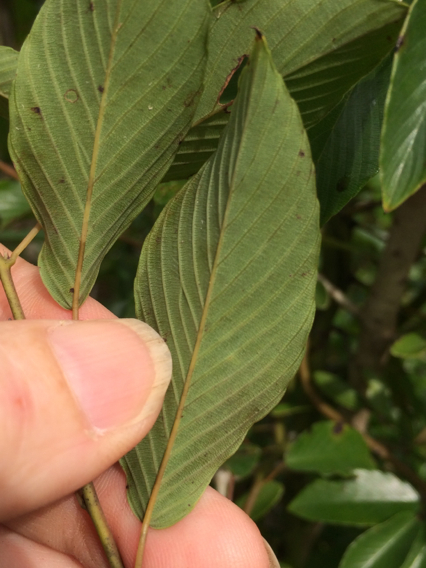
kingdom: Plantae
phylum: Tracheophyta
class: Magnoliopsida
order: Rosales
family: Rhamnaceae
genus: Berchemia
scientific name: Berchemia scandens
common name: Supplejack
